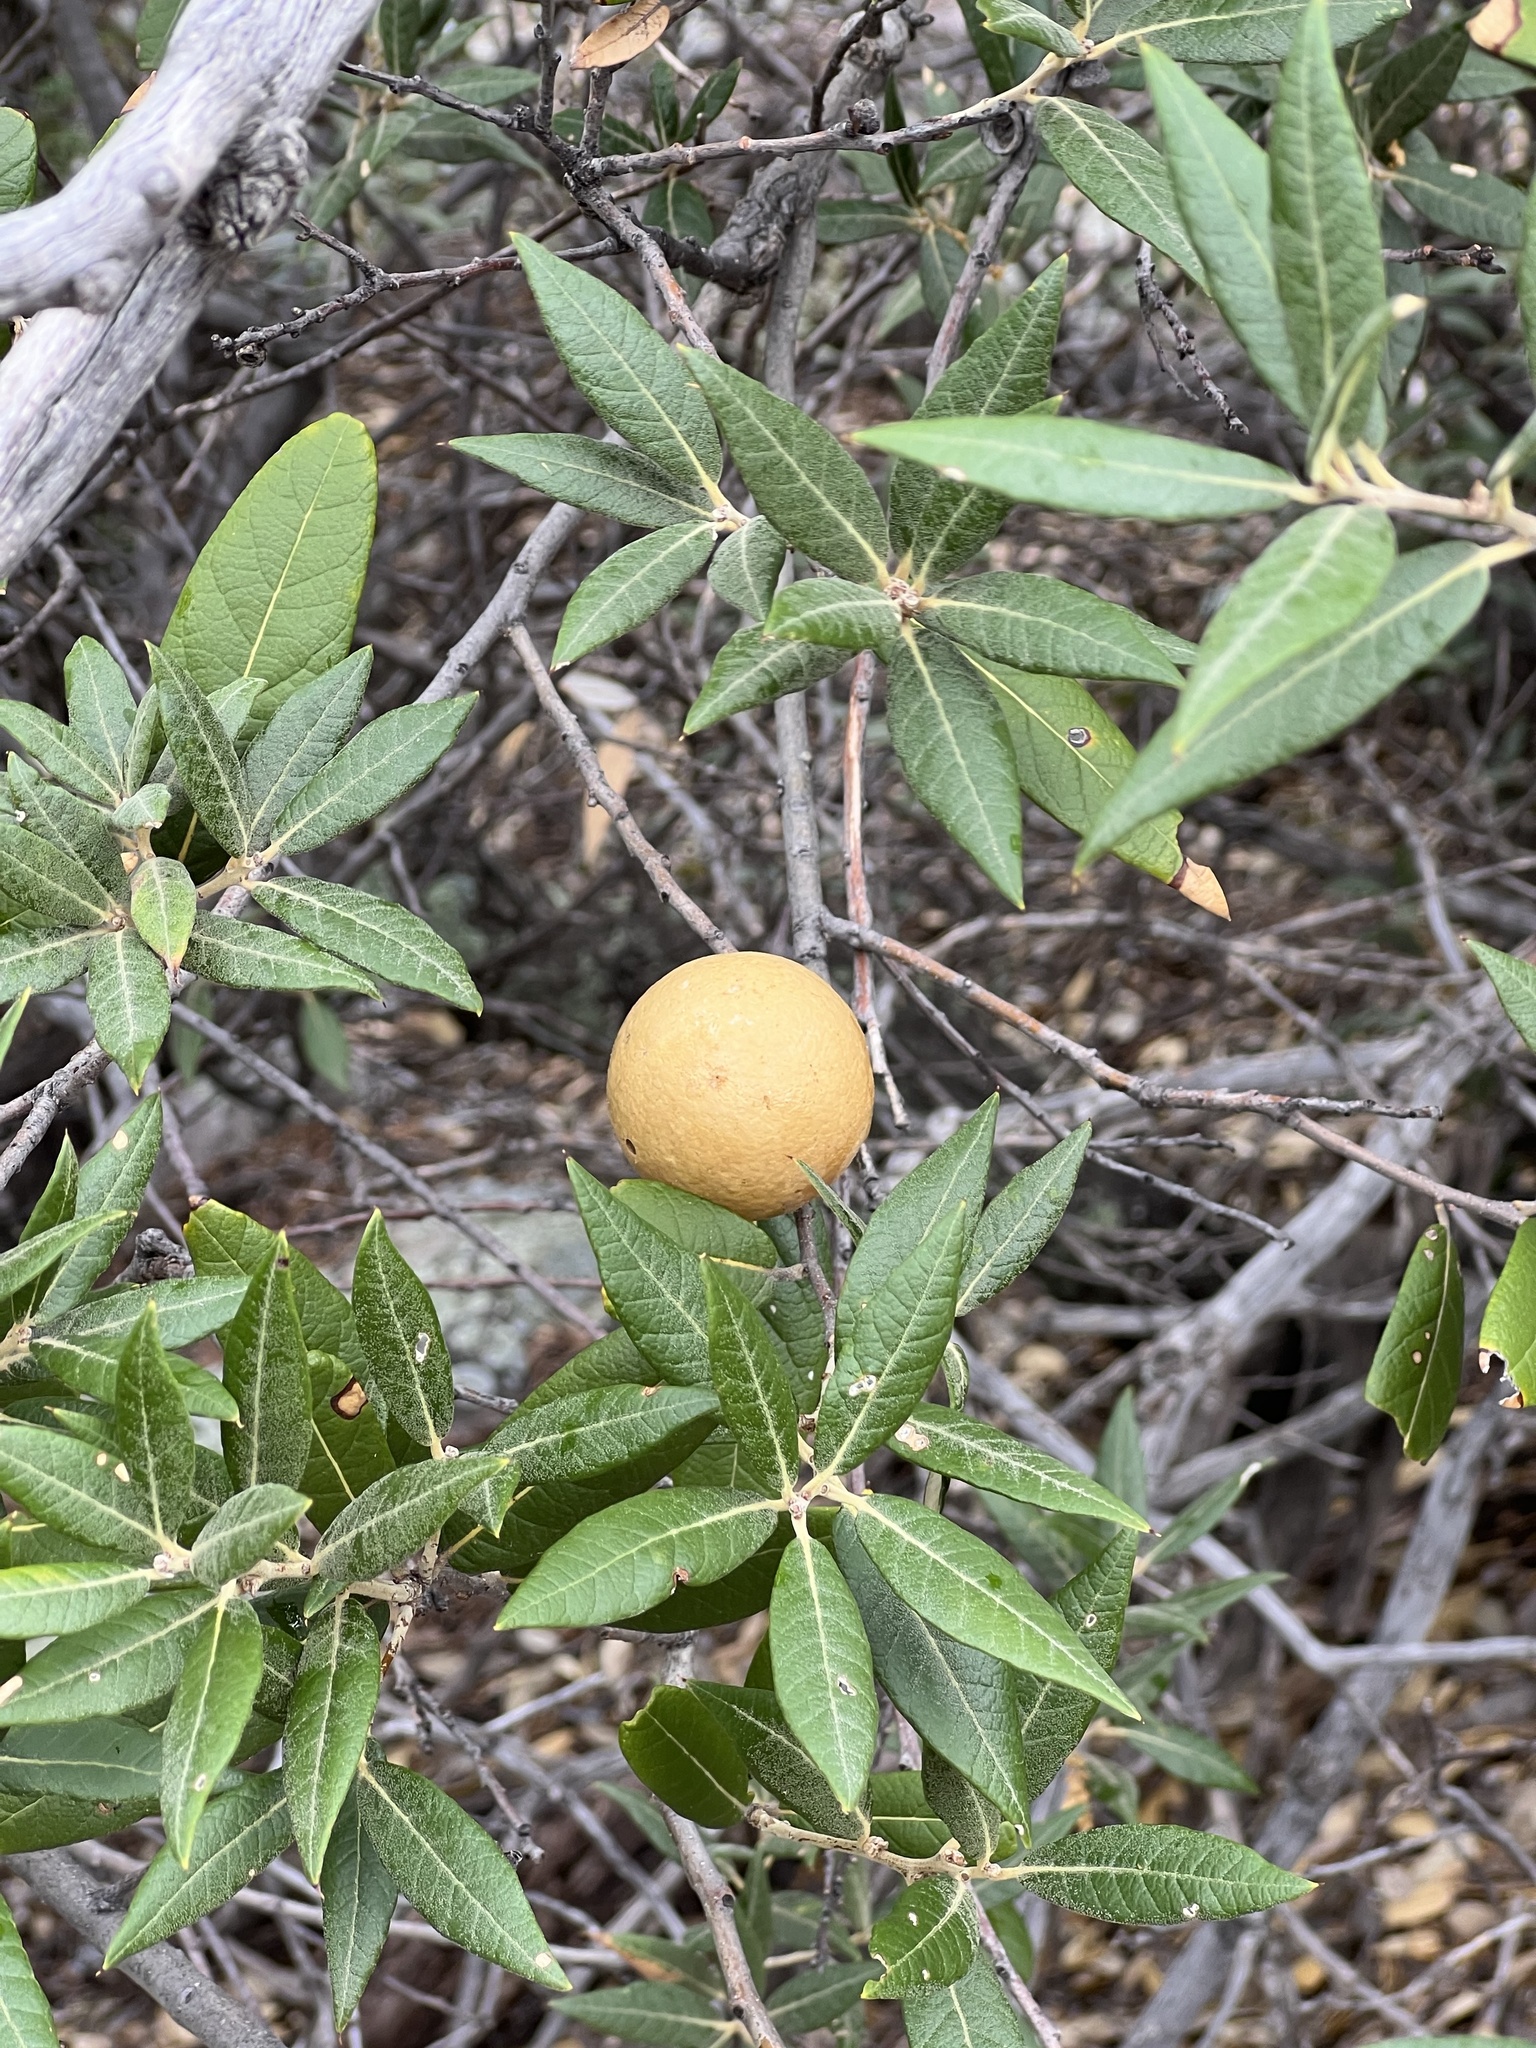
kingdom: Animalia
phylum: Arthropoda
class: Insecta
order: Hymenoptera
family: Cynipidae
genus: Amphibolips
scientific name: Amphibolips
